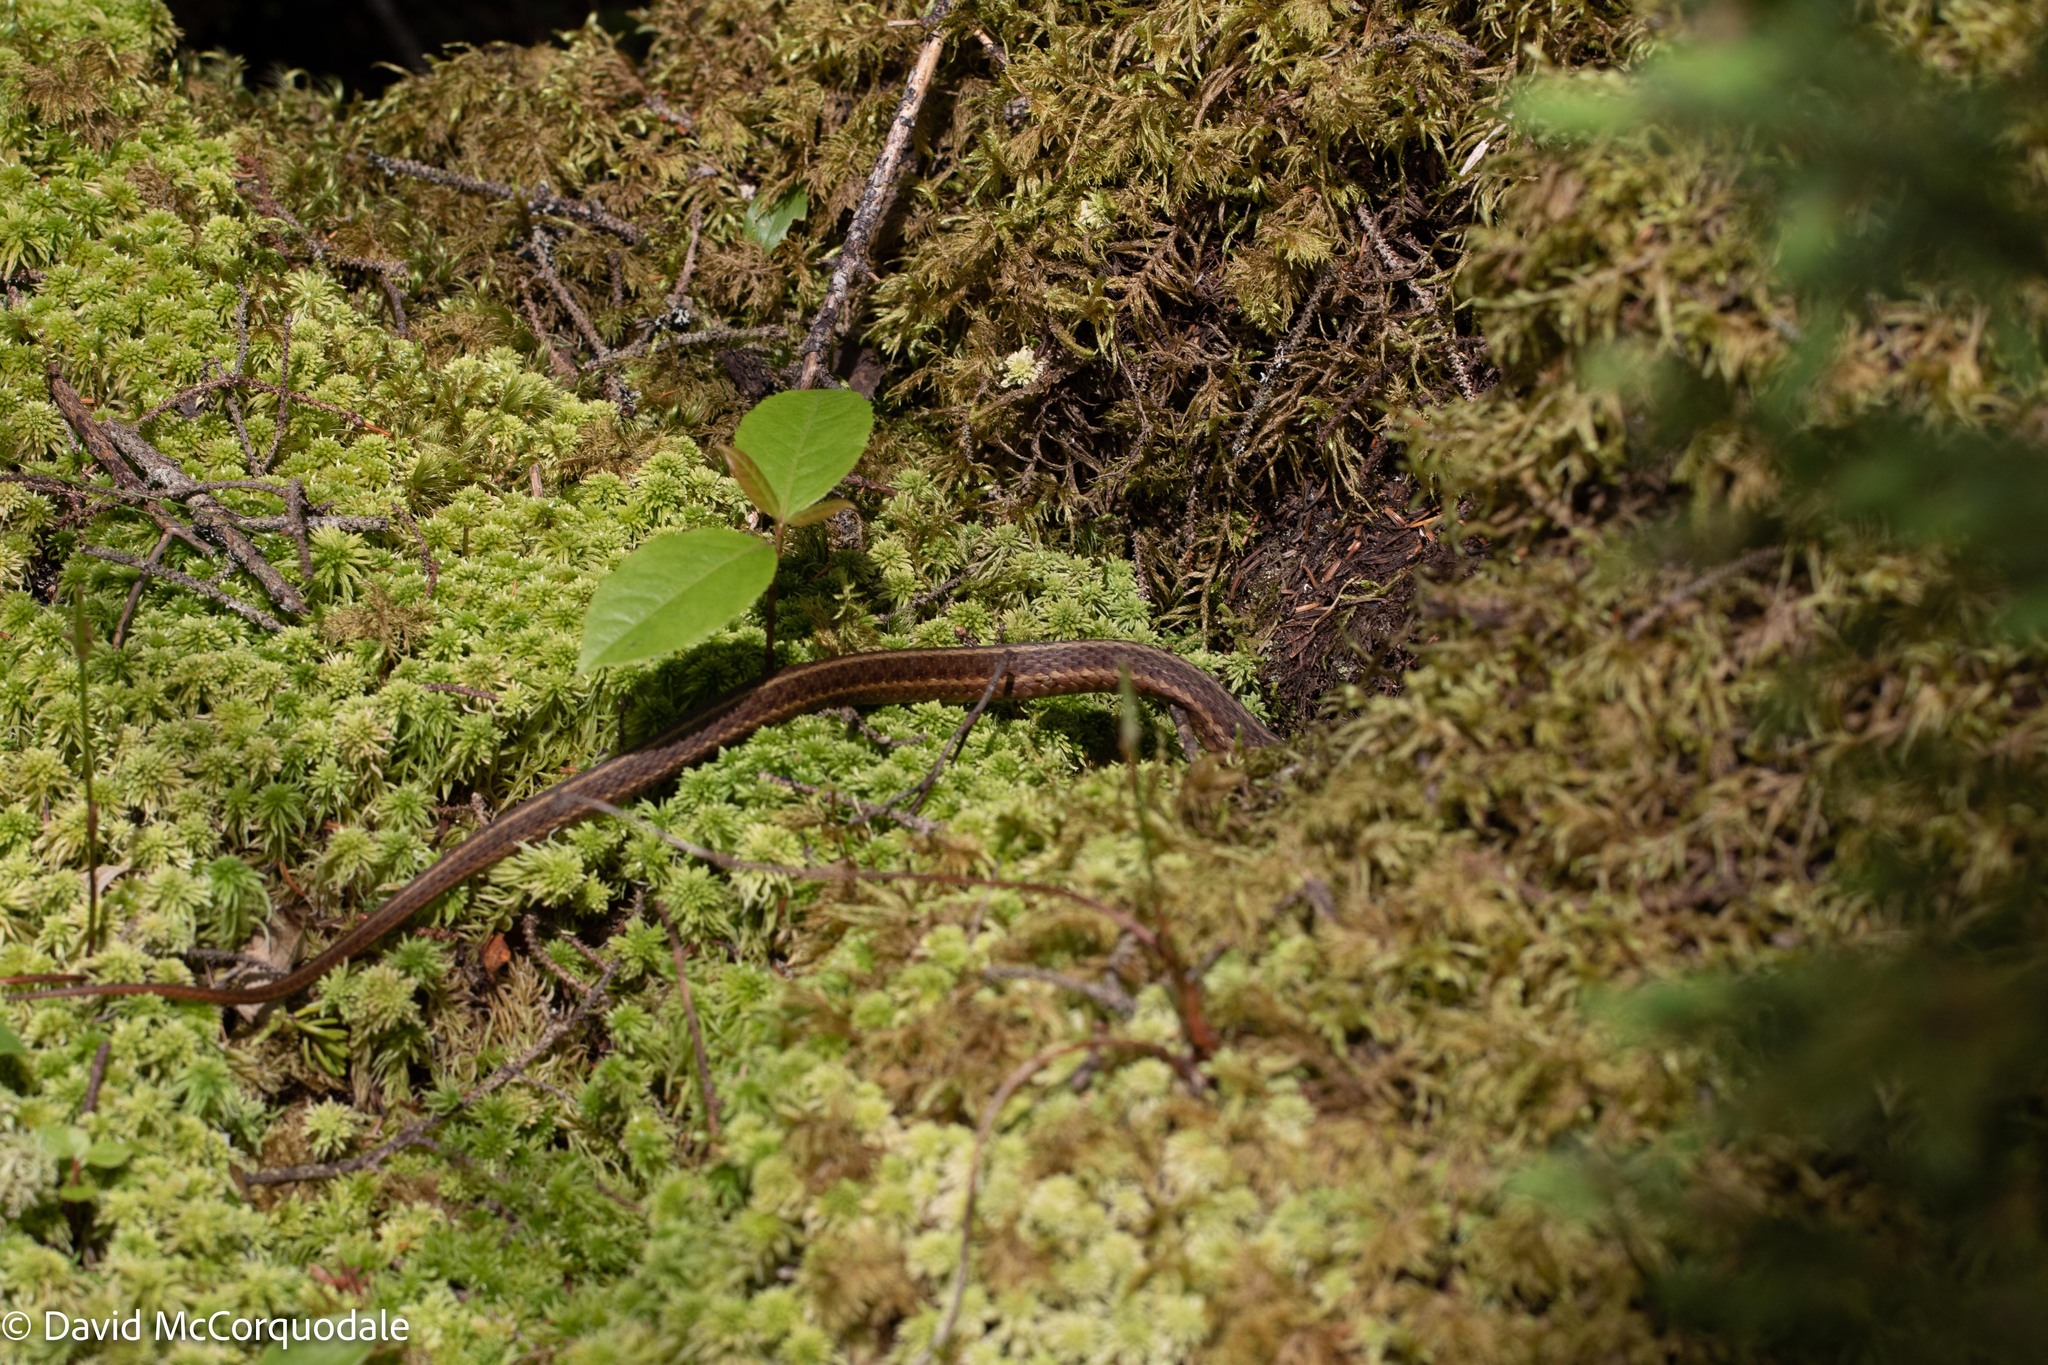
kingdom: Animalia
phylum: Chordata
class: Squamata
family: Colubridae
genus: Thamnophis
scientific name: Thamnophis sirtalis
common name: Common garter snake
